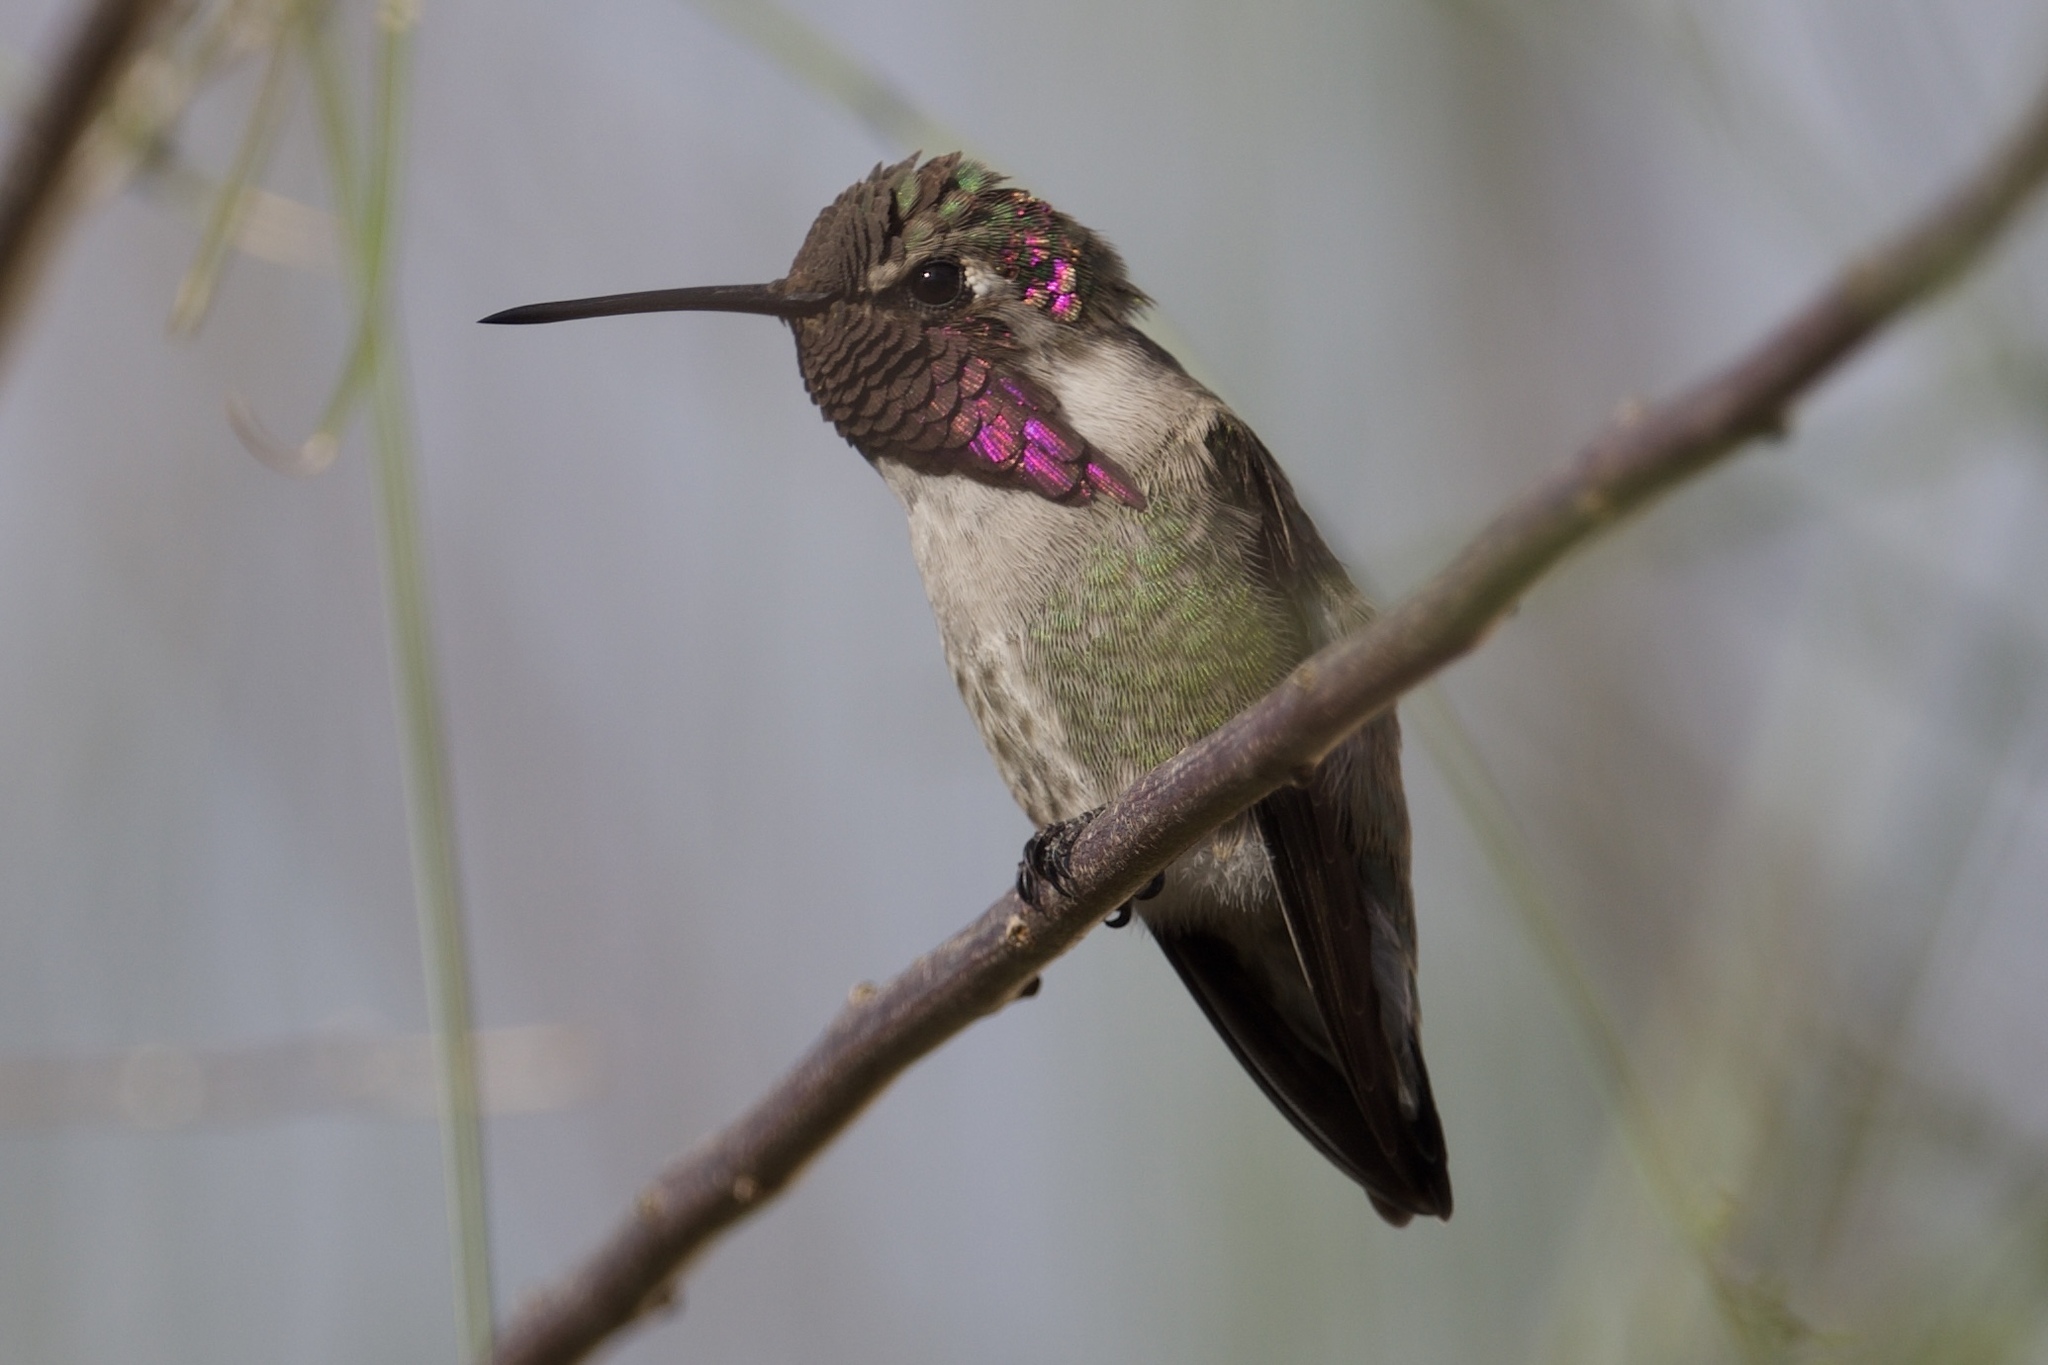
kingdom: Animalia
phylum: Chordata
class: Aves
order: Apodiformes
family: Trochilidae
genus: Calypte
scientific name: Calypte anna
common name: Anna's hummingbird
